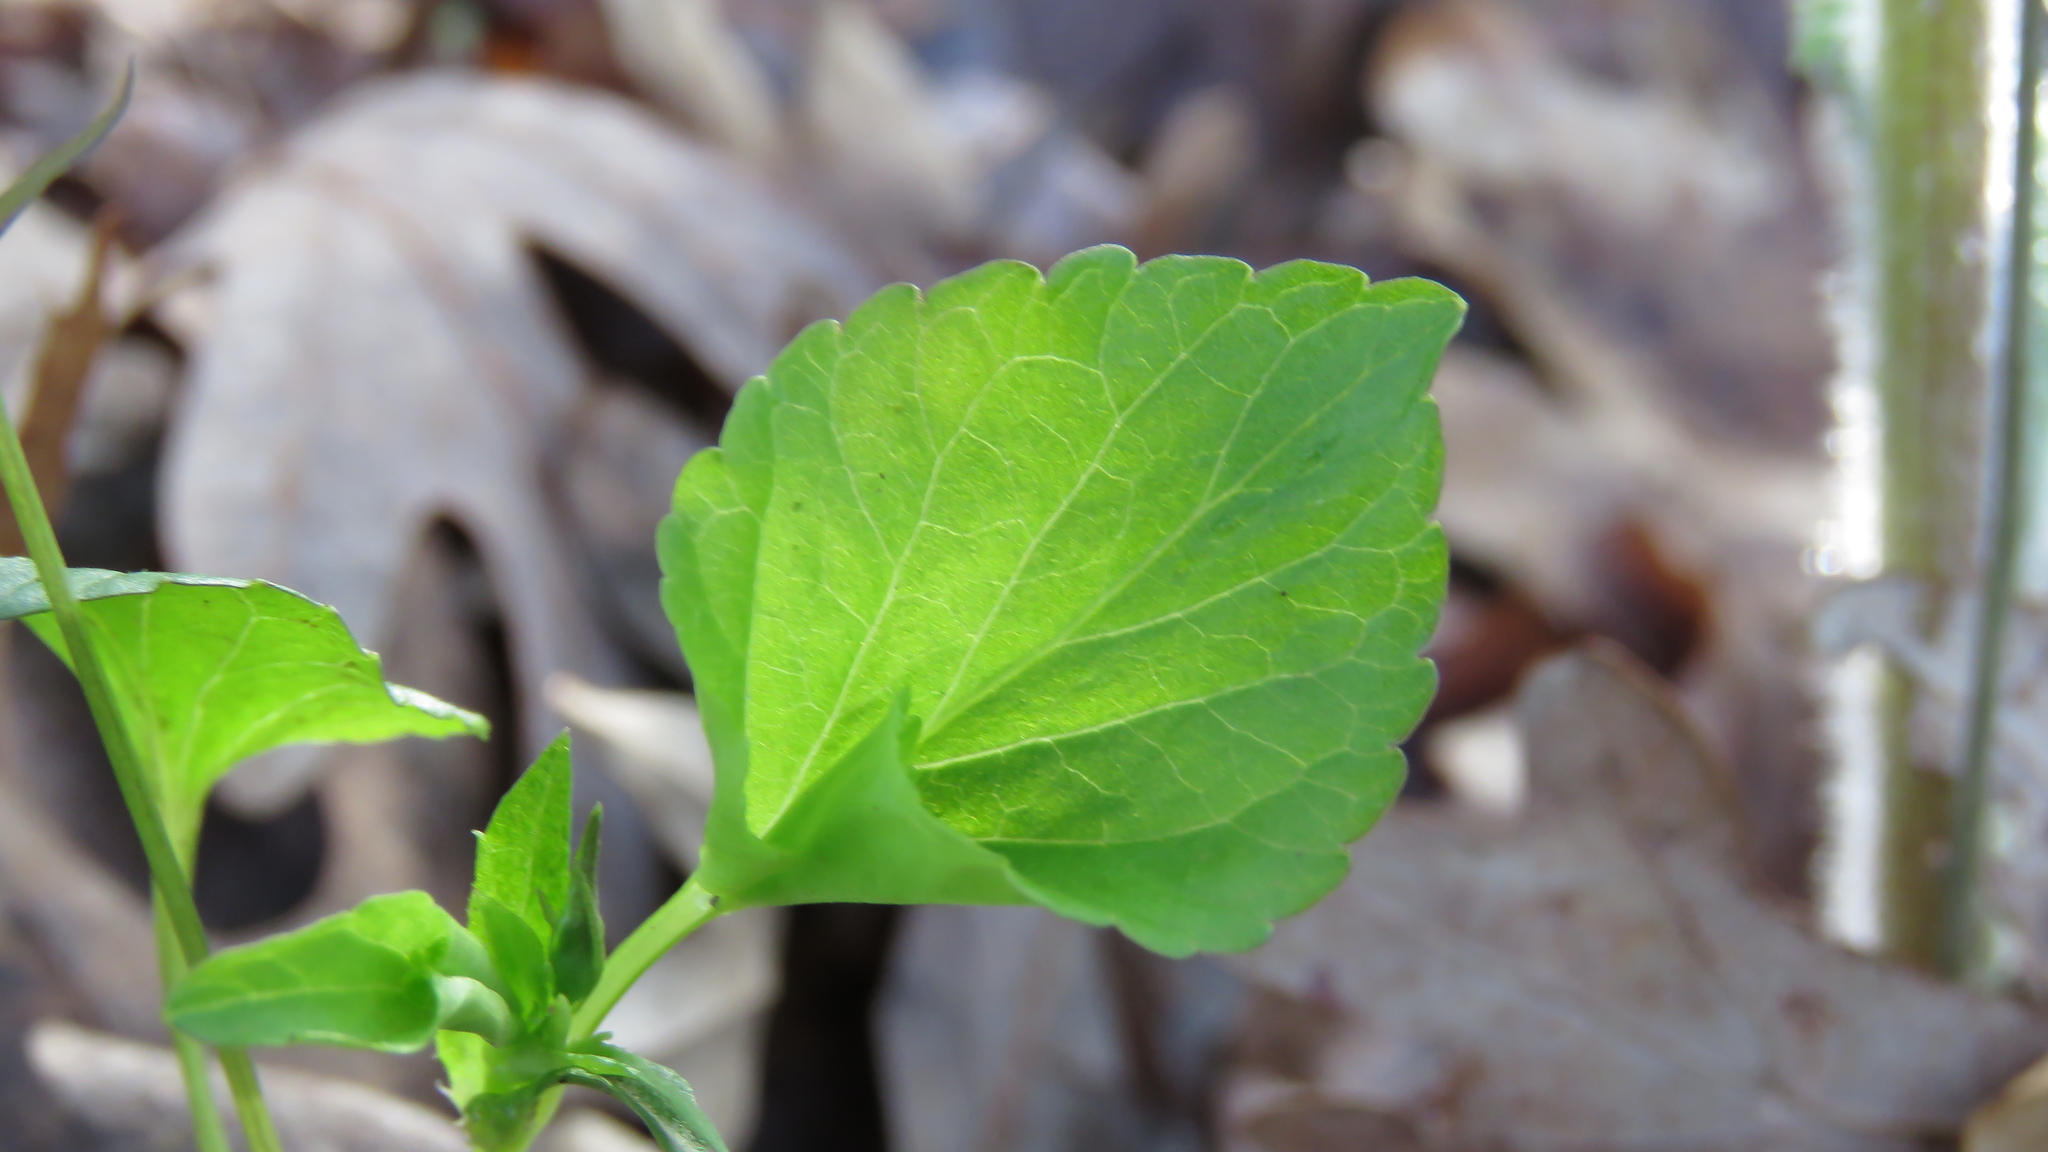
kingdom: Plantae
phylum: Tracheophyta
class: Magnoliopsida
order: Malpighiales
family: Violaceae
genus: Viola
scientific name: Viola labradorica
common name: Labrador violet
